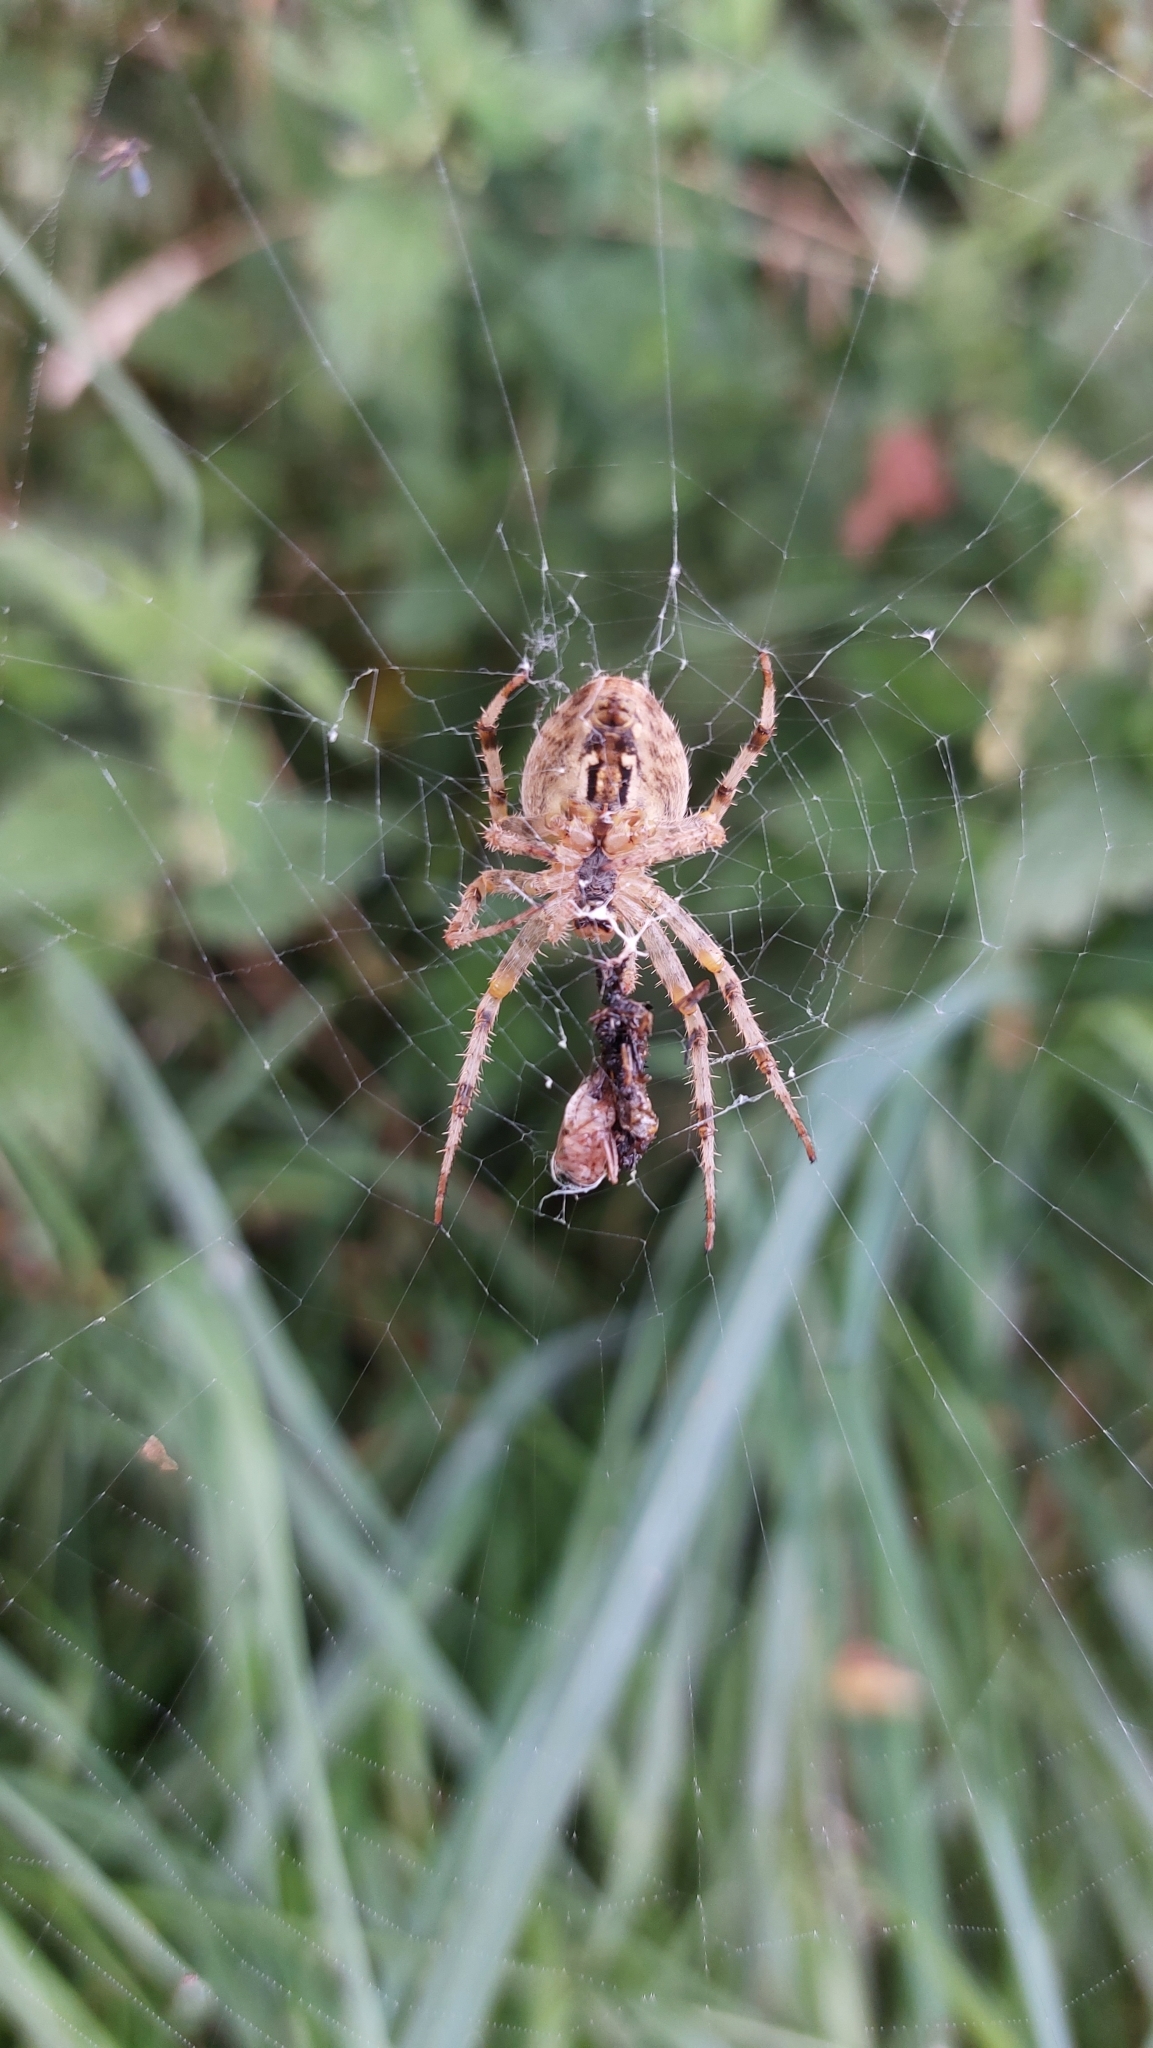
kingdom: Animalia
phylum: Arthropoda
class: Arachnida
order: Araneae
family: Araneidae
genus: Araneus
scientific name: Araneus diadematus
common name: Cross orbweaver
